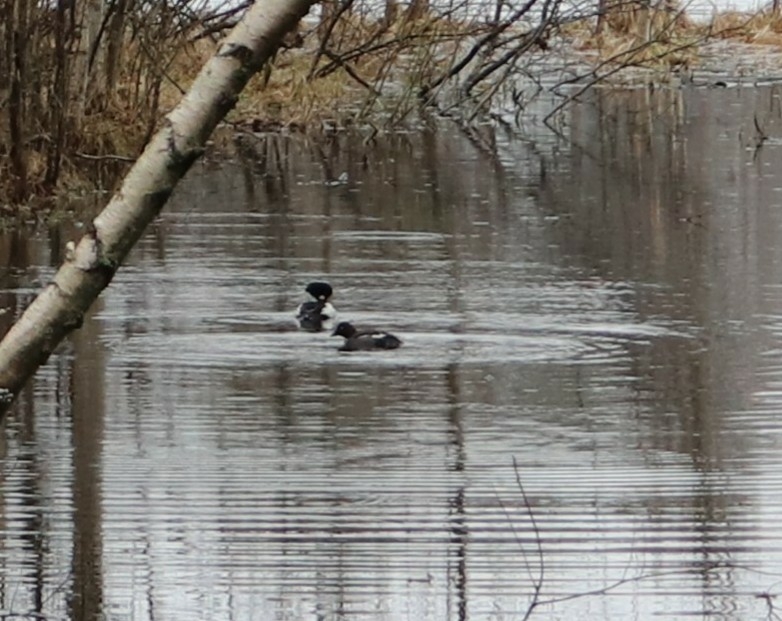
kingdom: Animalia
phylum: Chordata
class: Aves
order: Anseriformes
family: Anatidae
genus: Bucephala
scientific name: Bucephala clangula
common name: Common goldeneye
